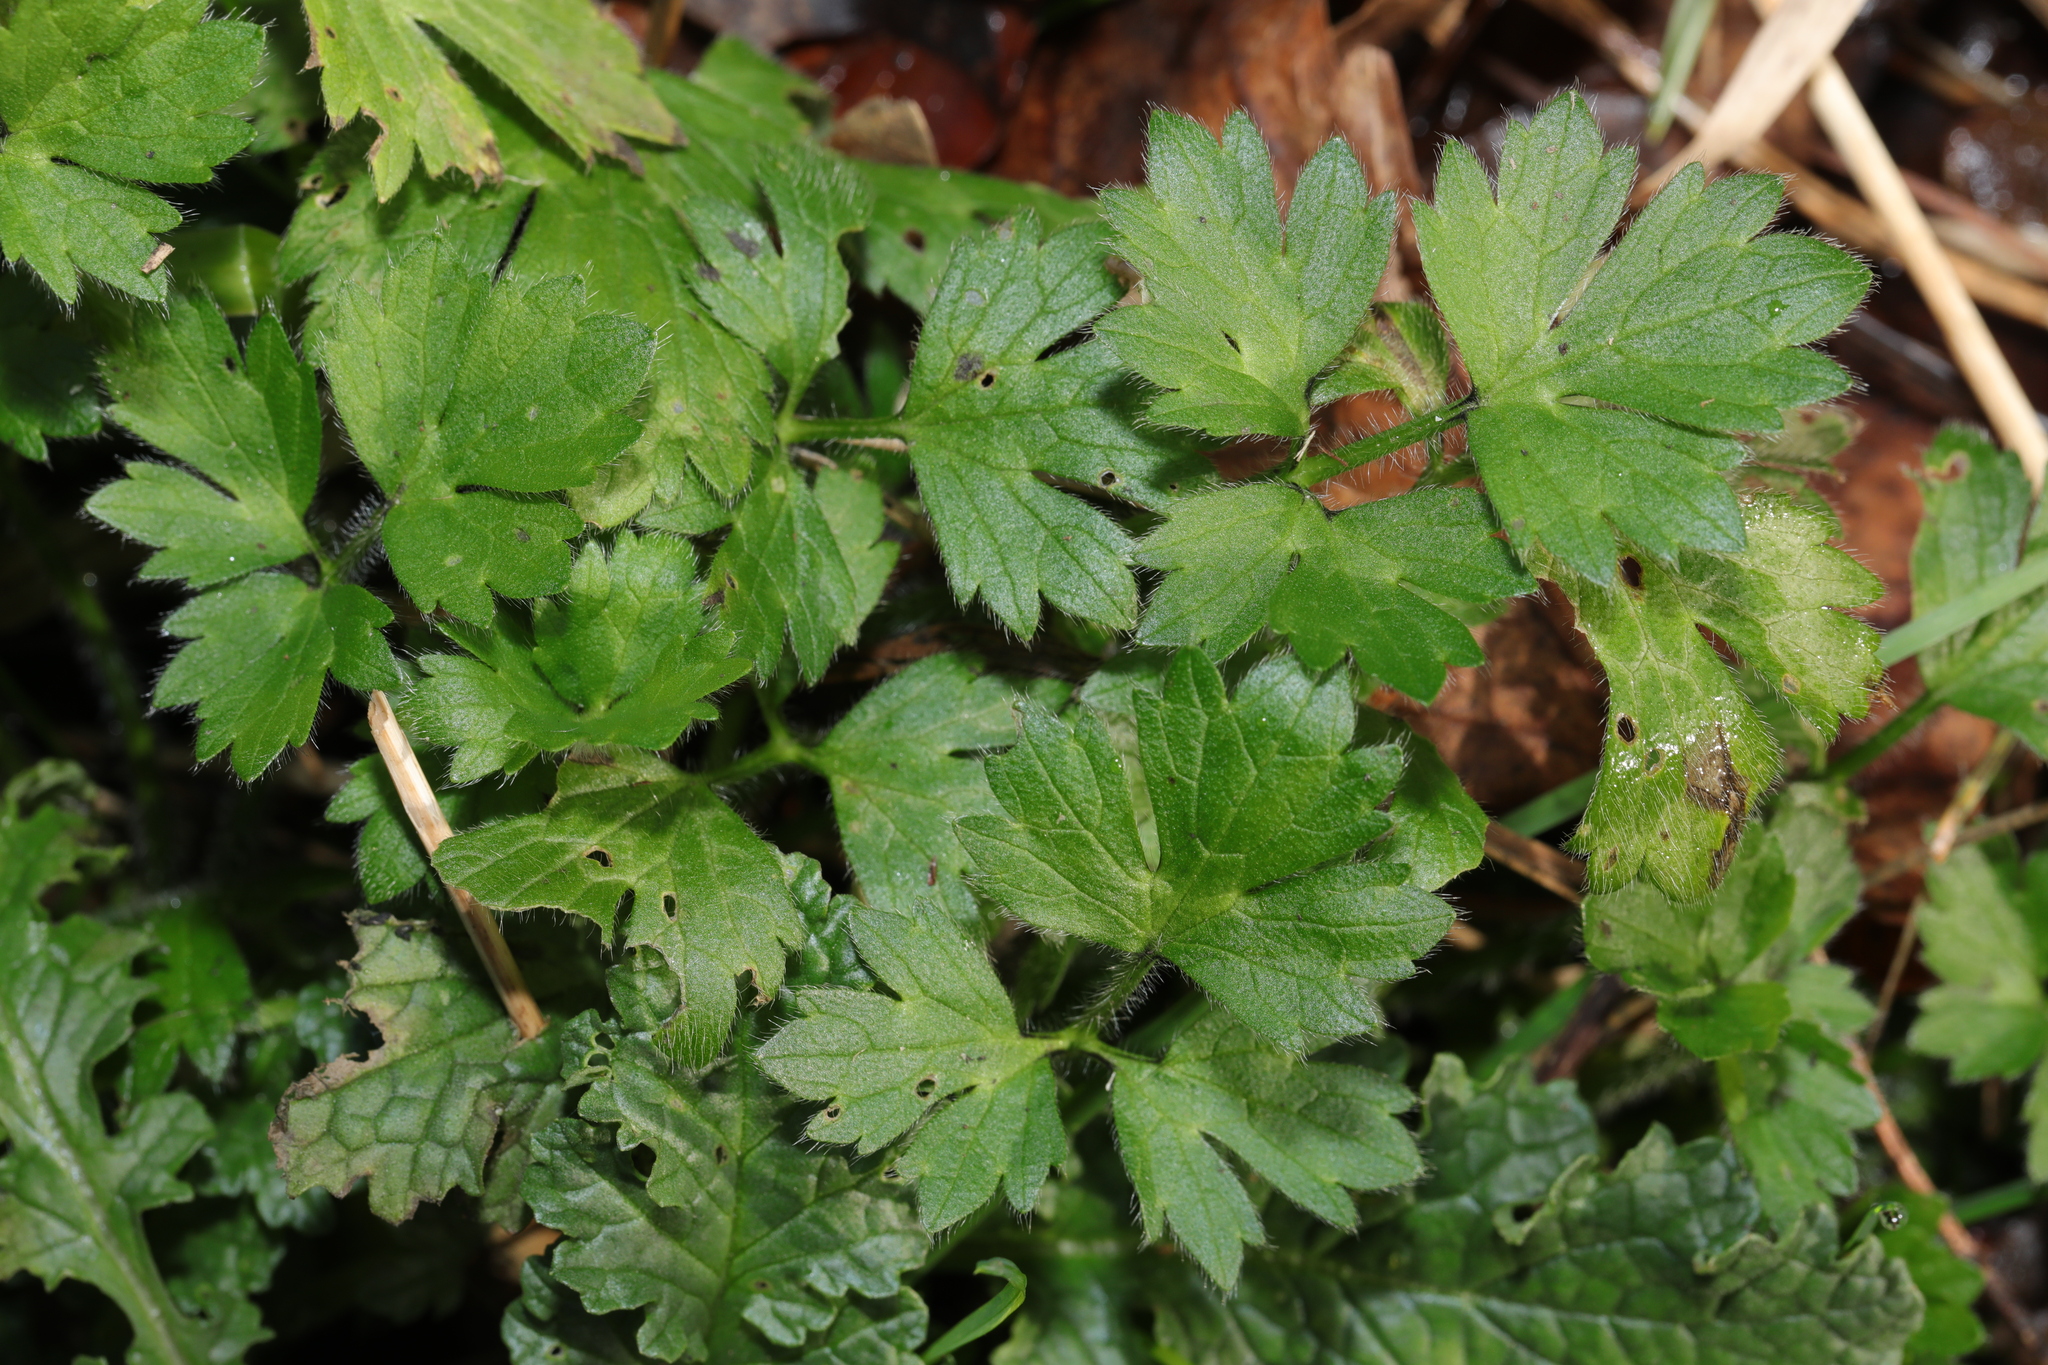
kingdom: Plantae
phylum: Tracheophyta
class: Magnoliopsida
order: Ranunculales
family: Ranunculaceae
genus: Ranunculus
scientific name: Ranunculus repens
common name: Creeping buttercup
